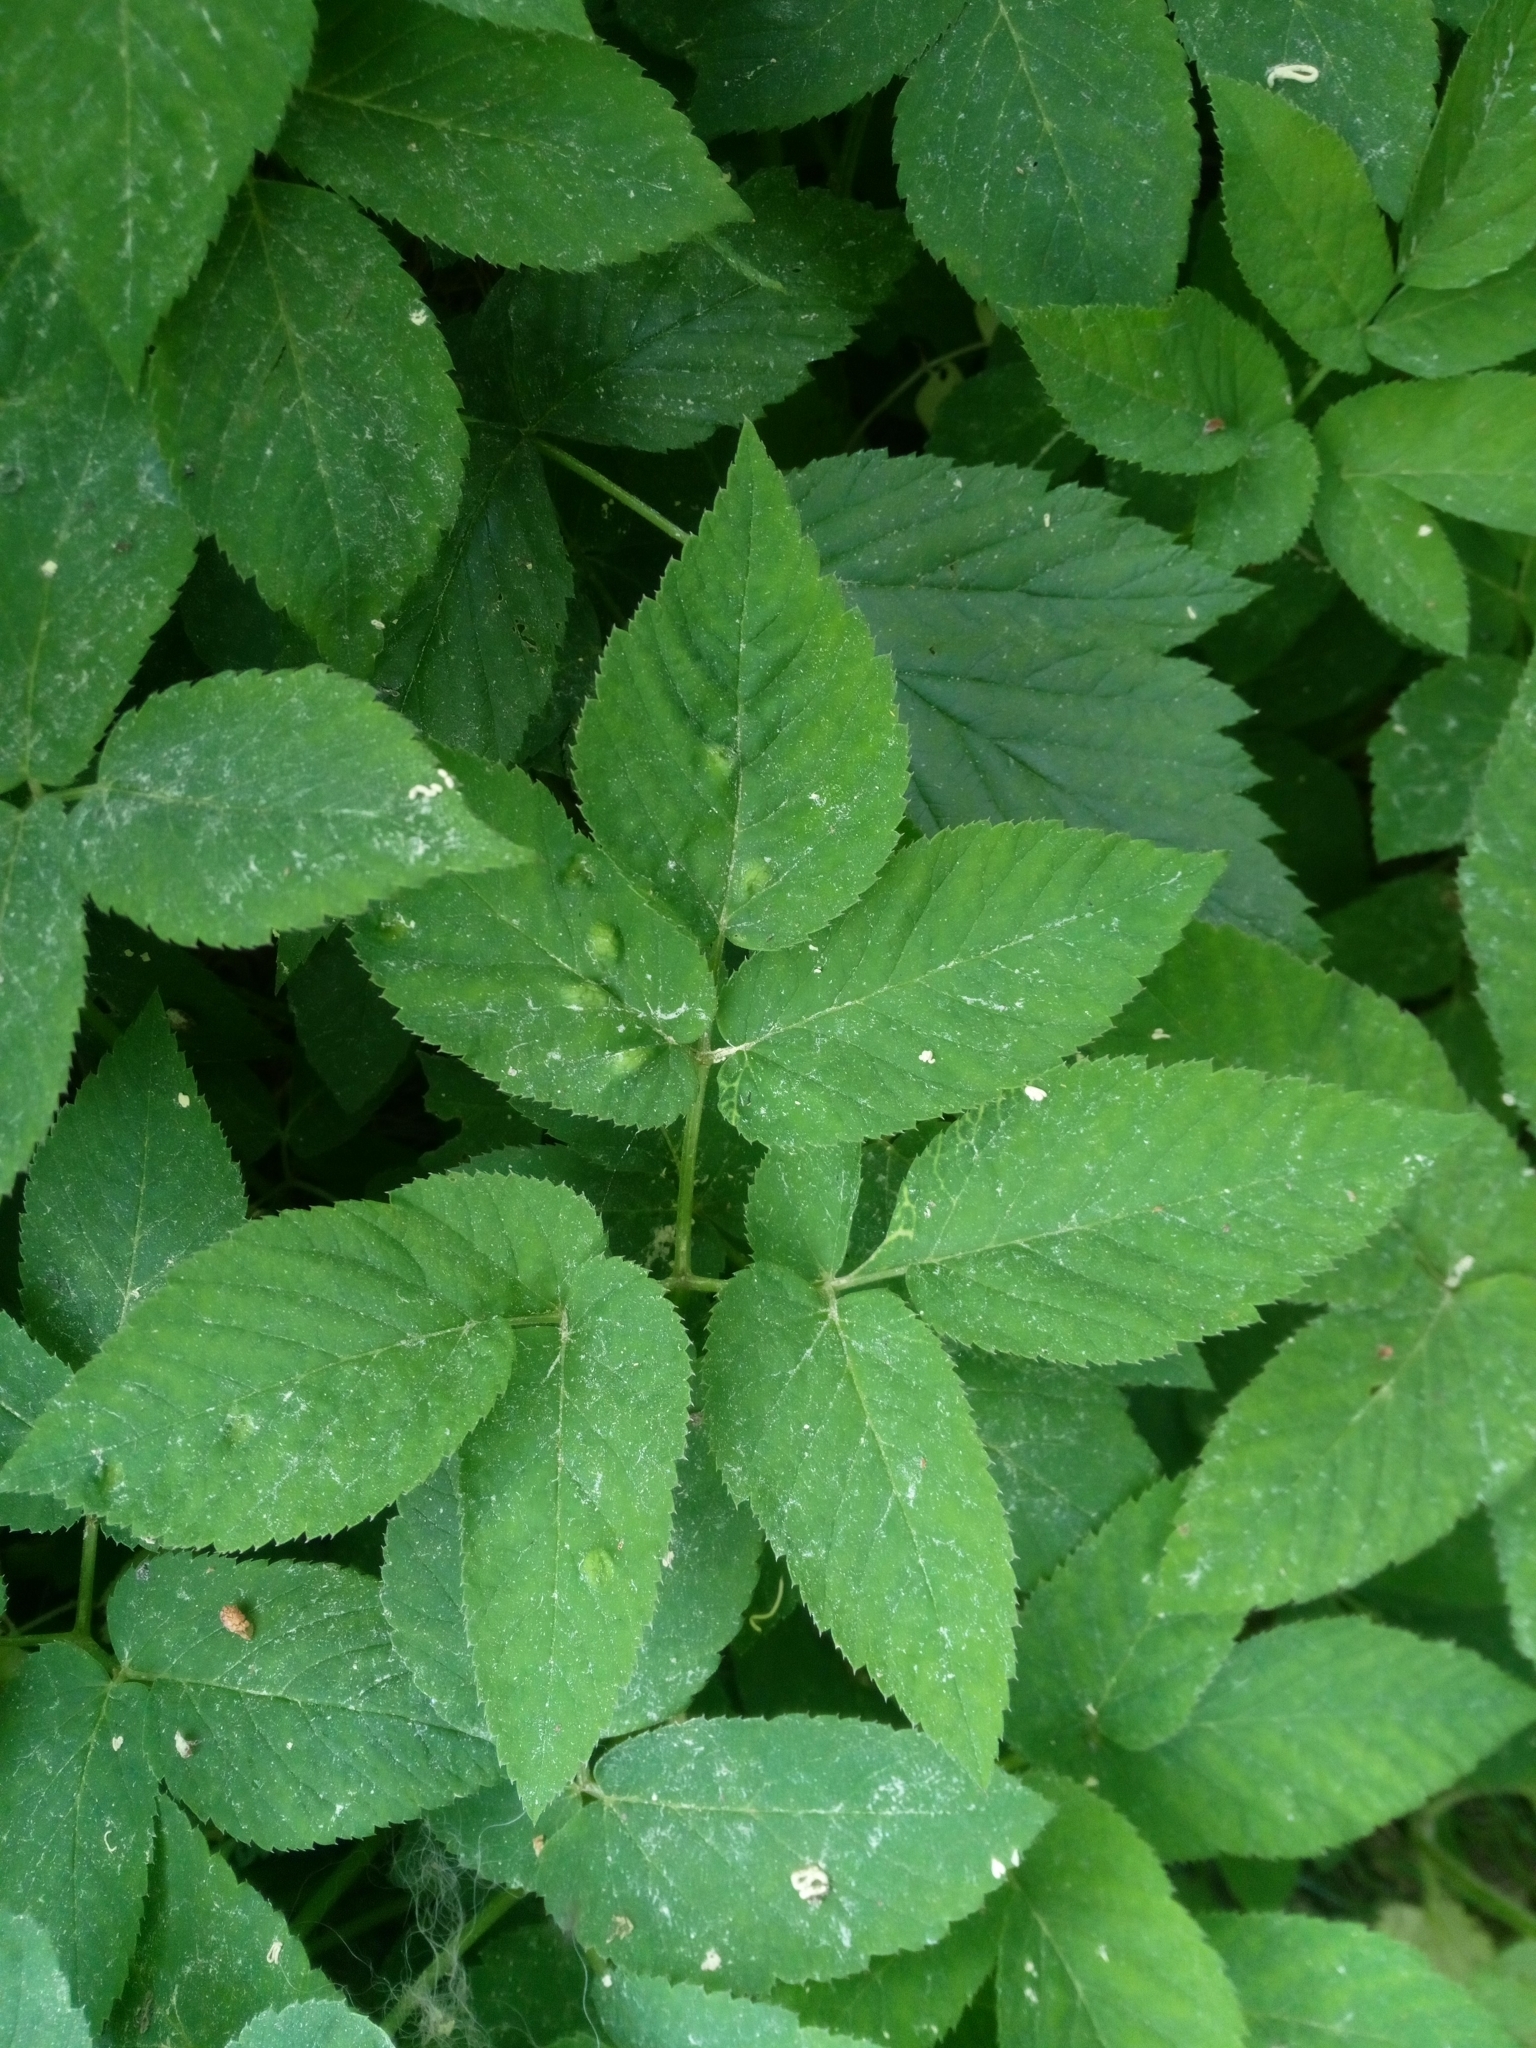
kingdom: Animalia
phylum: Arthropoda
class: Insecta
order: Hemiptera
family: Triozidae
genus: Trioza
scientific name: Trioza flavipennis
